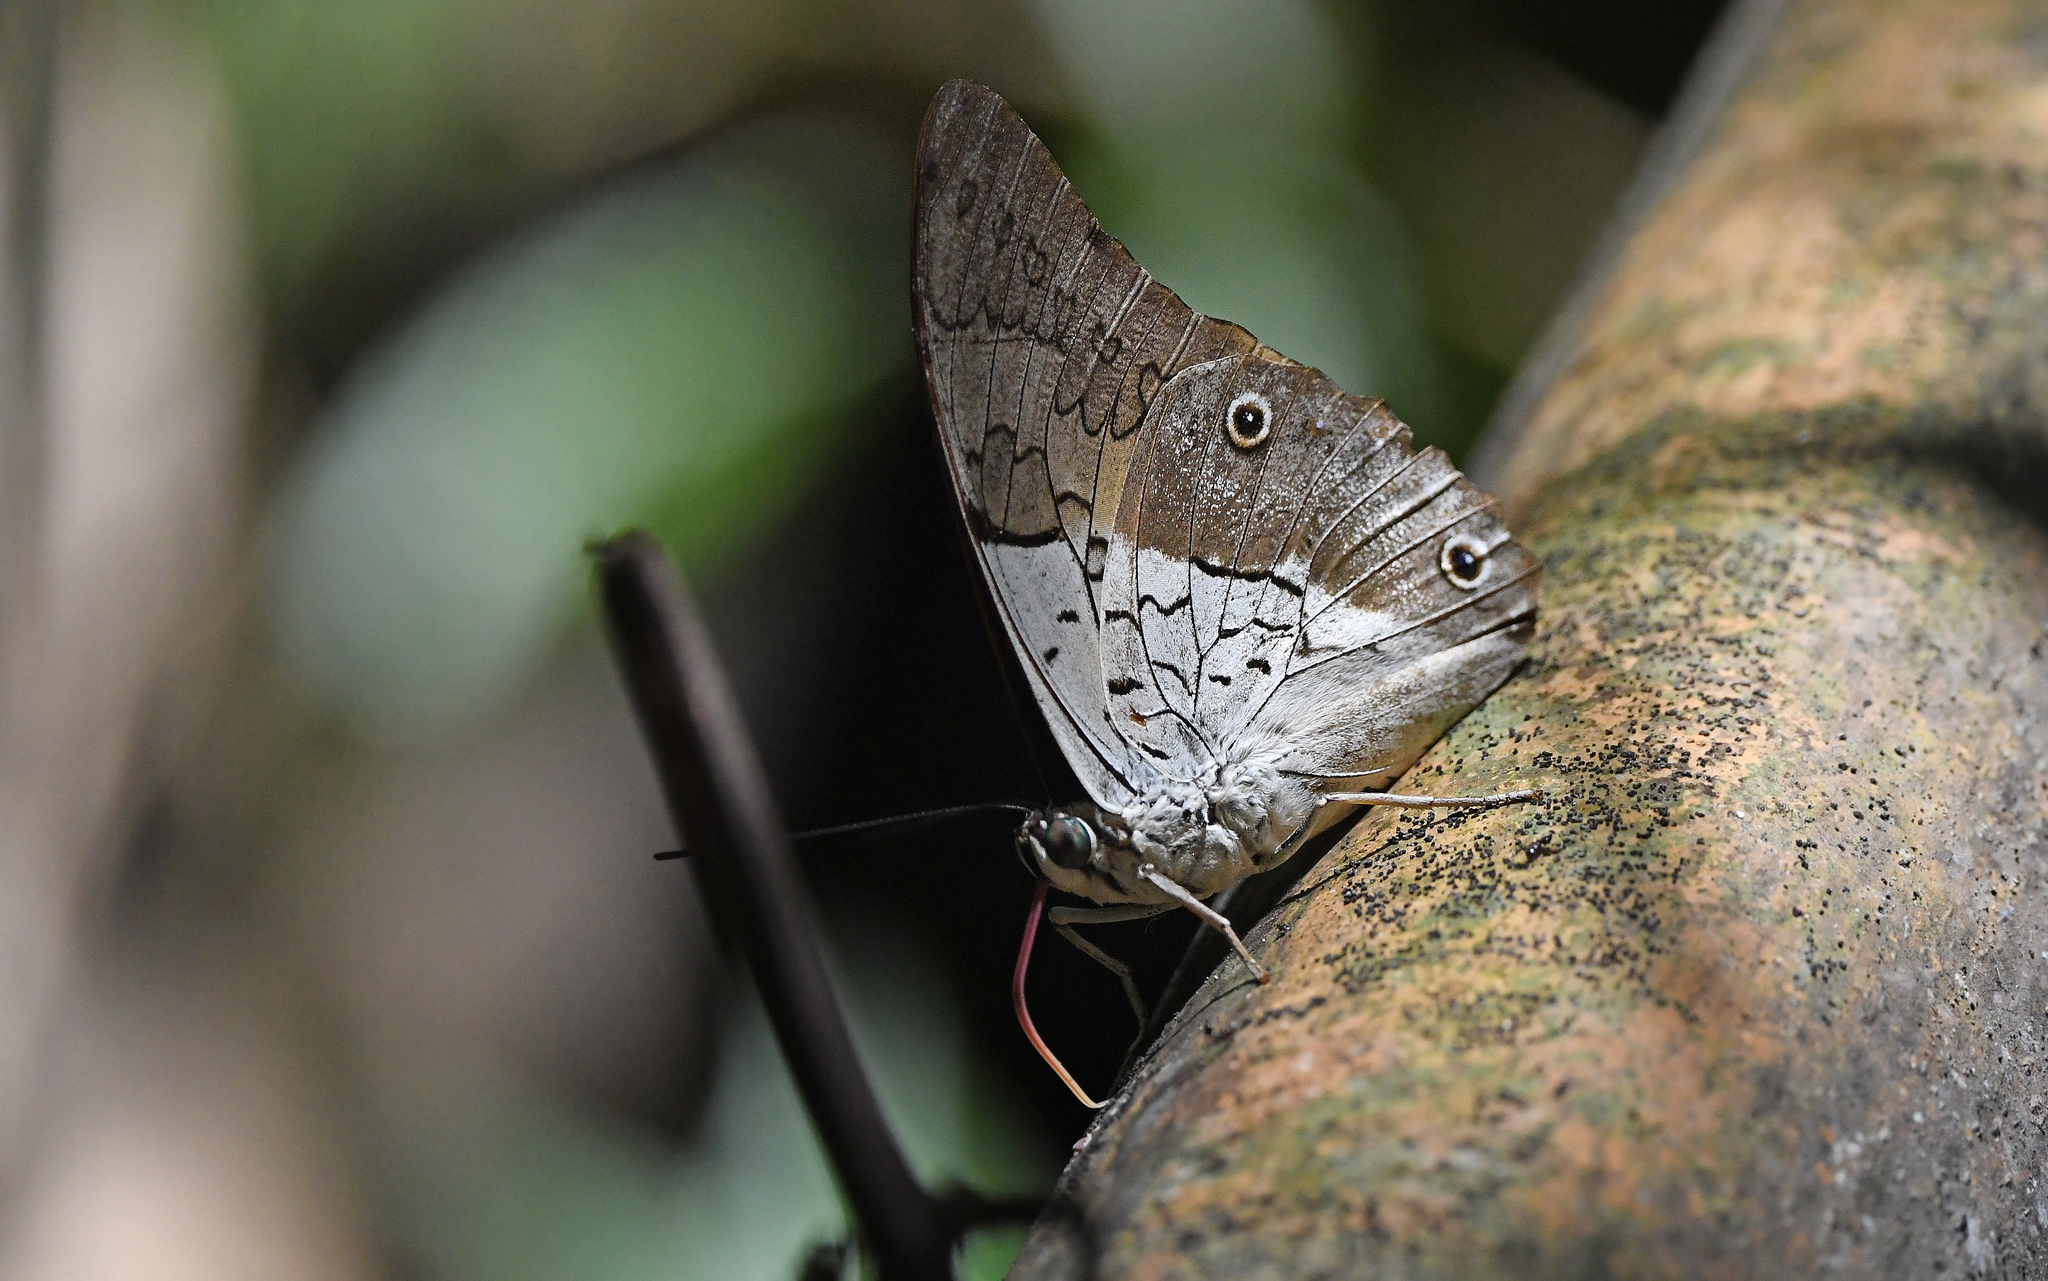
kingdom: Animalia
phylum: Arthropoda
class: Insecta
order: Lepidoptera
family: Nymphalidae
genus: Prepona
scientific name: Prepona laertes
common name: Butterfly
